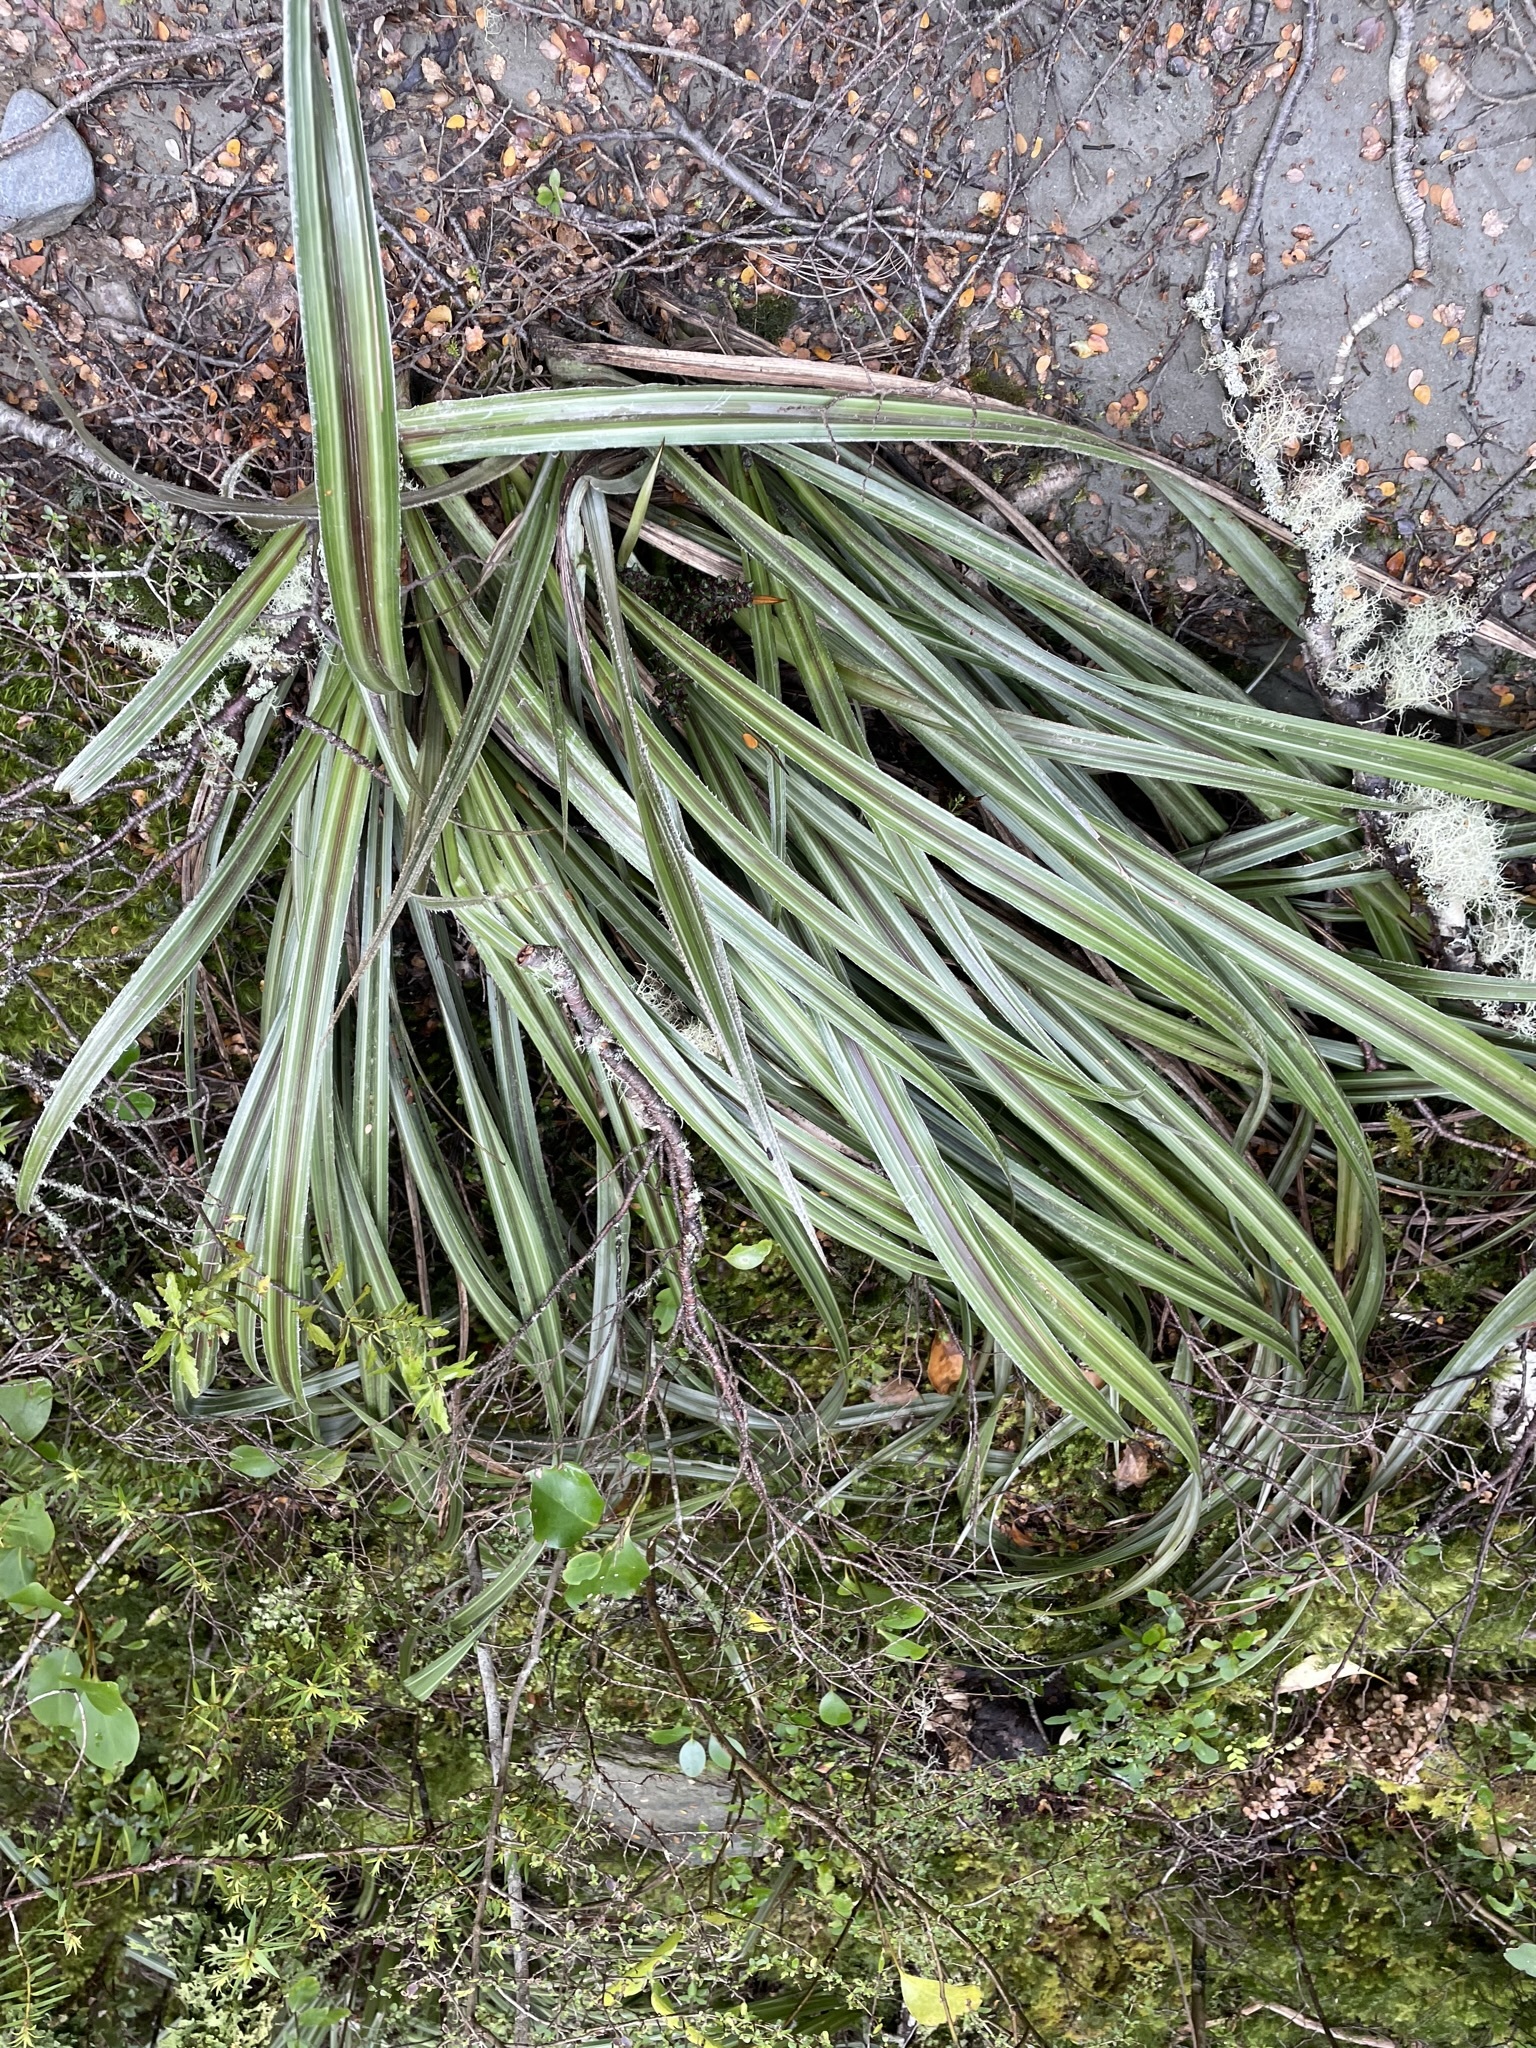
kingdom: Plantae
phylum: Tracheophyta
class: Liliopsida
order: Asparagales
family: Asteliaceae
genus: Astelia
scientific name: Astelia nervosa
